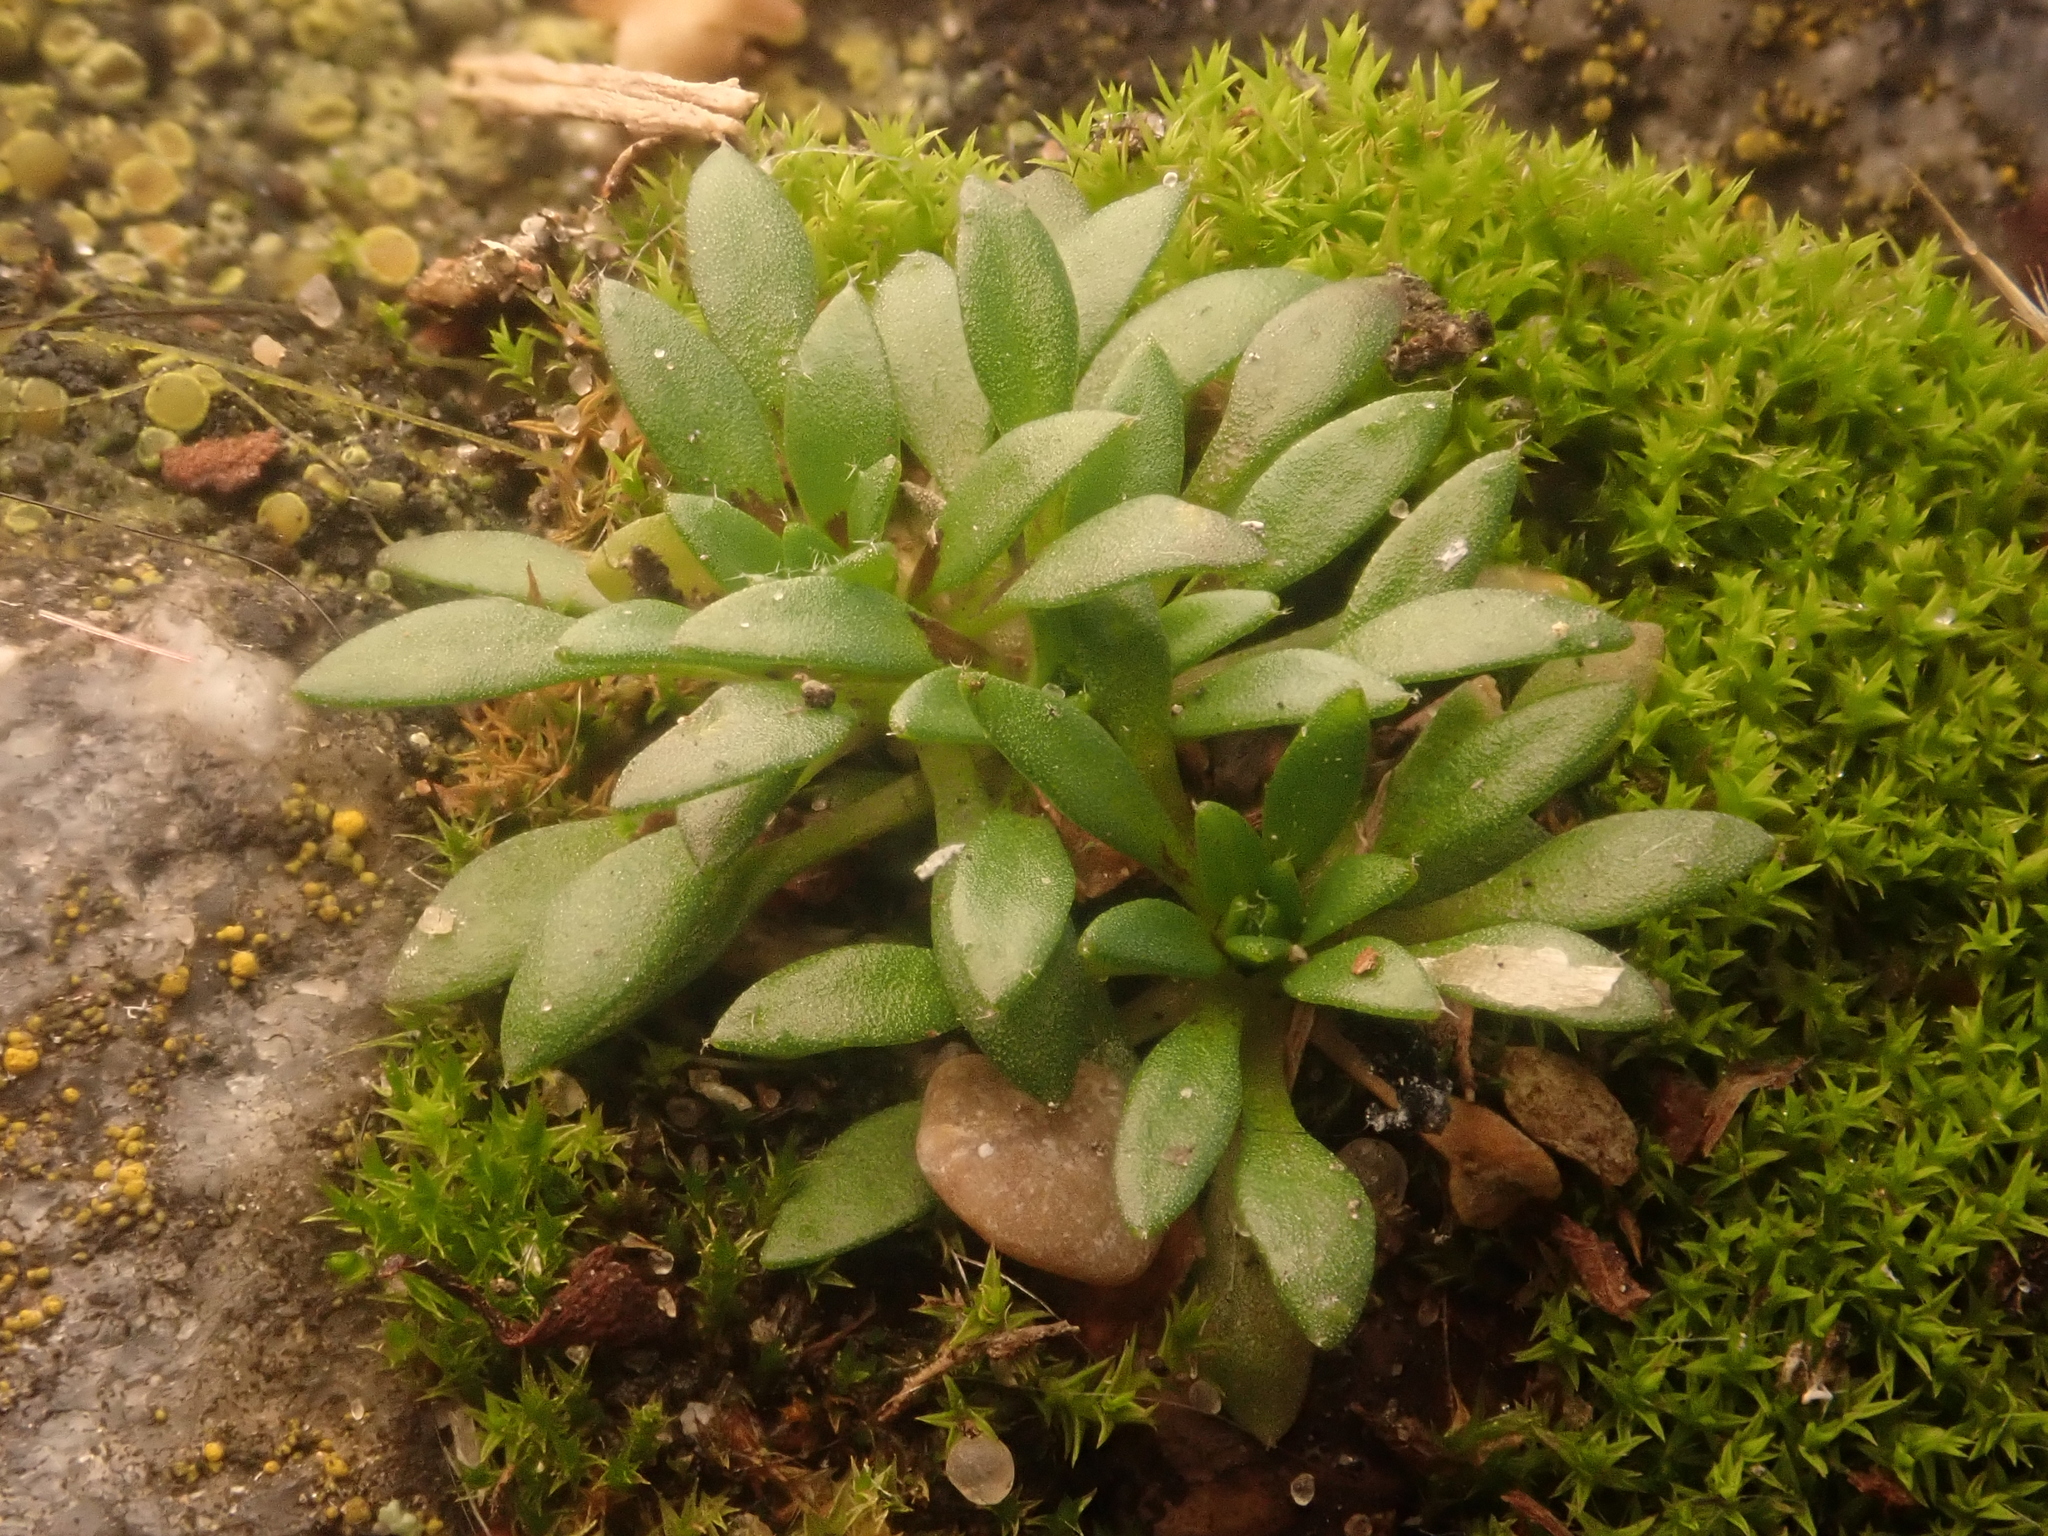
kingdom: Plantae
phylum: Tracheophyta
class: Magnoliopsida
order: Brassicales
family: Brassicaceae
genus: Draba
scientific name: Draba verna
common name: Spring draba
